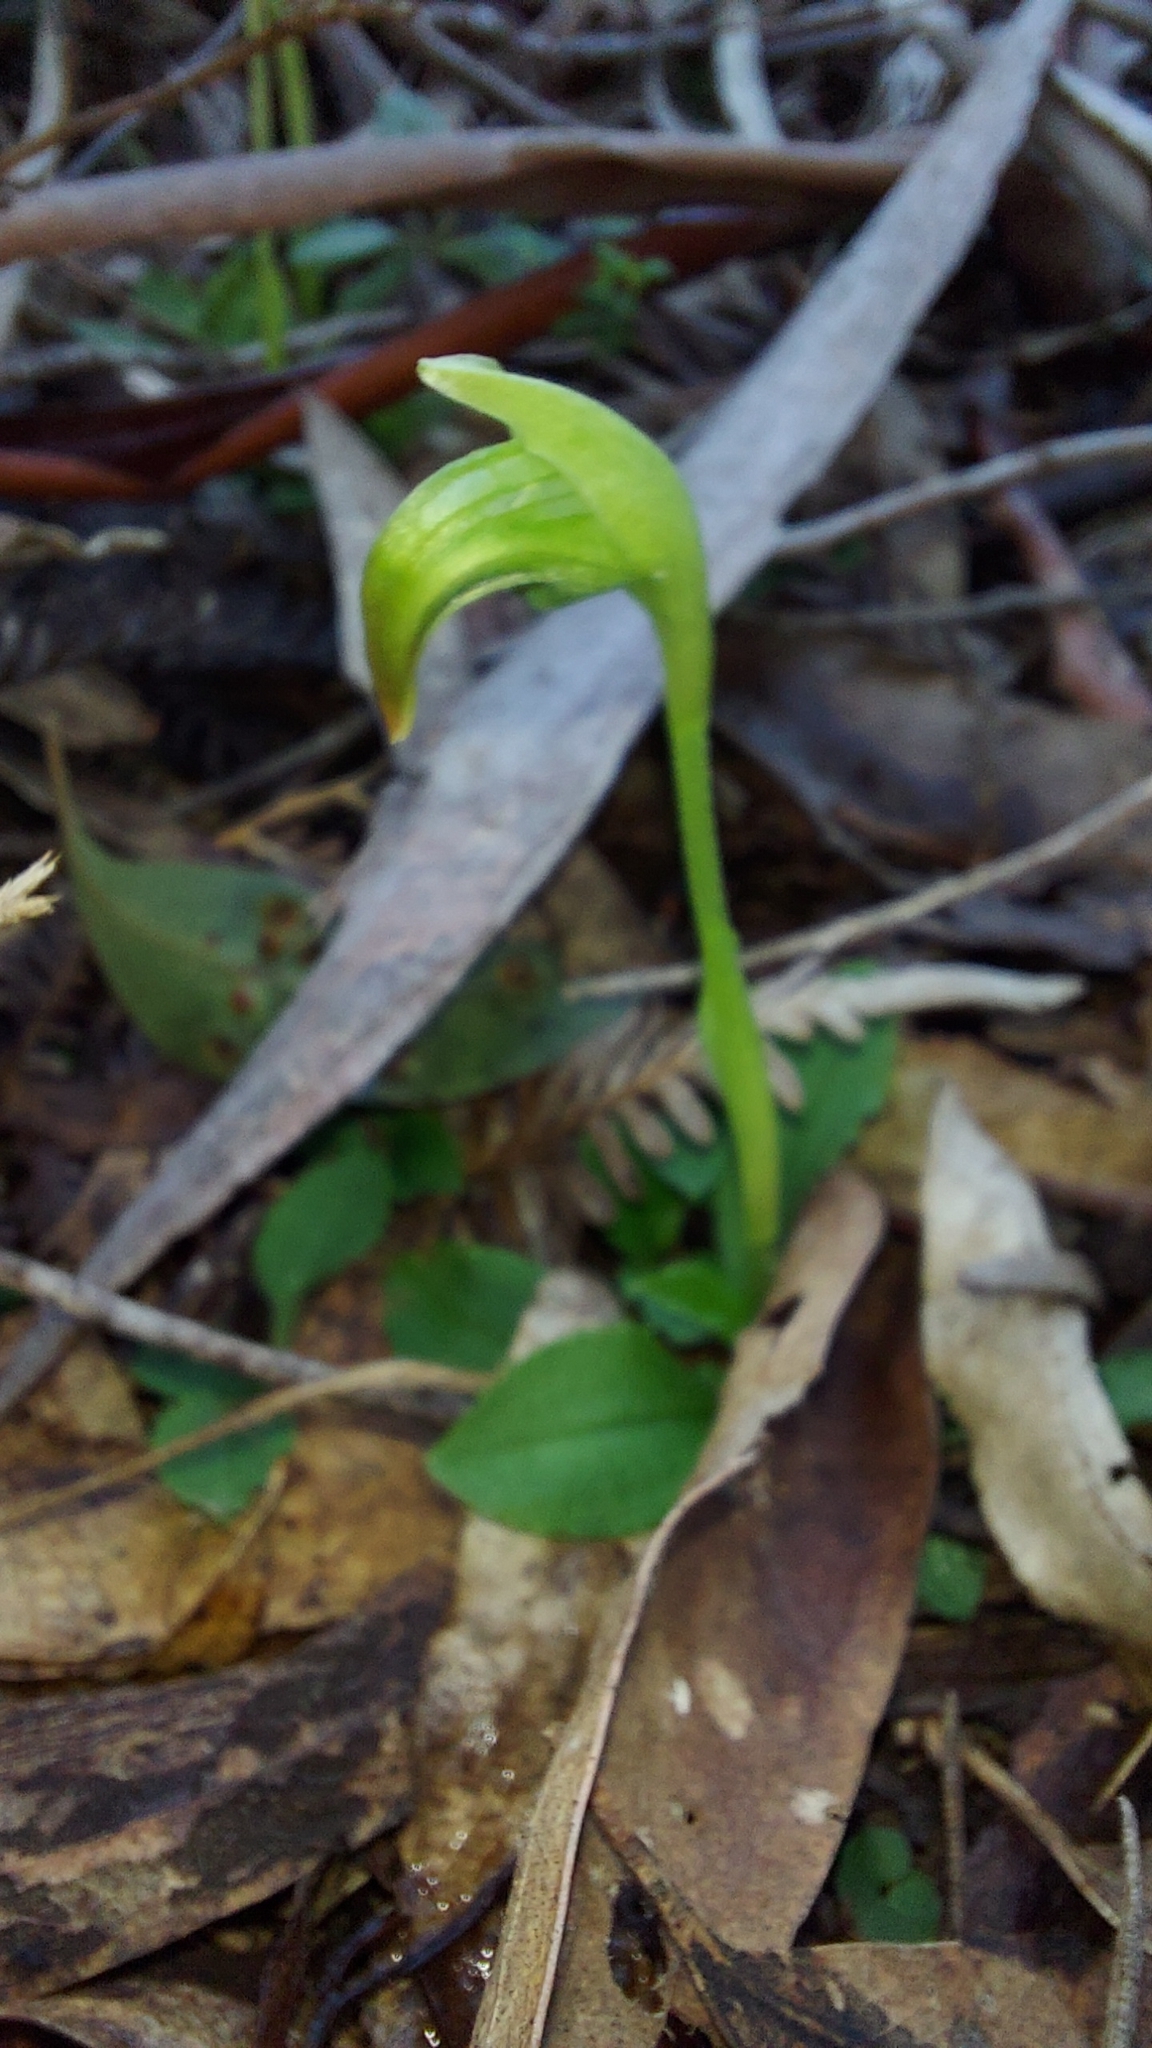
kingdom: Plantae
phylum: Tracheophyta
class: Liliopsida
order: Asparagales
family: Orchidaceae
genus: Pterostylis
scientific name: Pterostylis nutans
